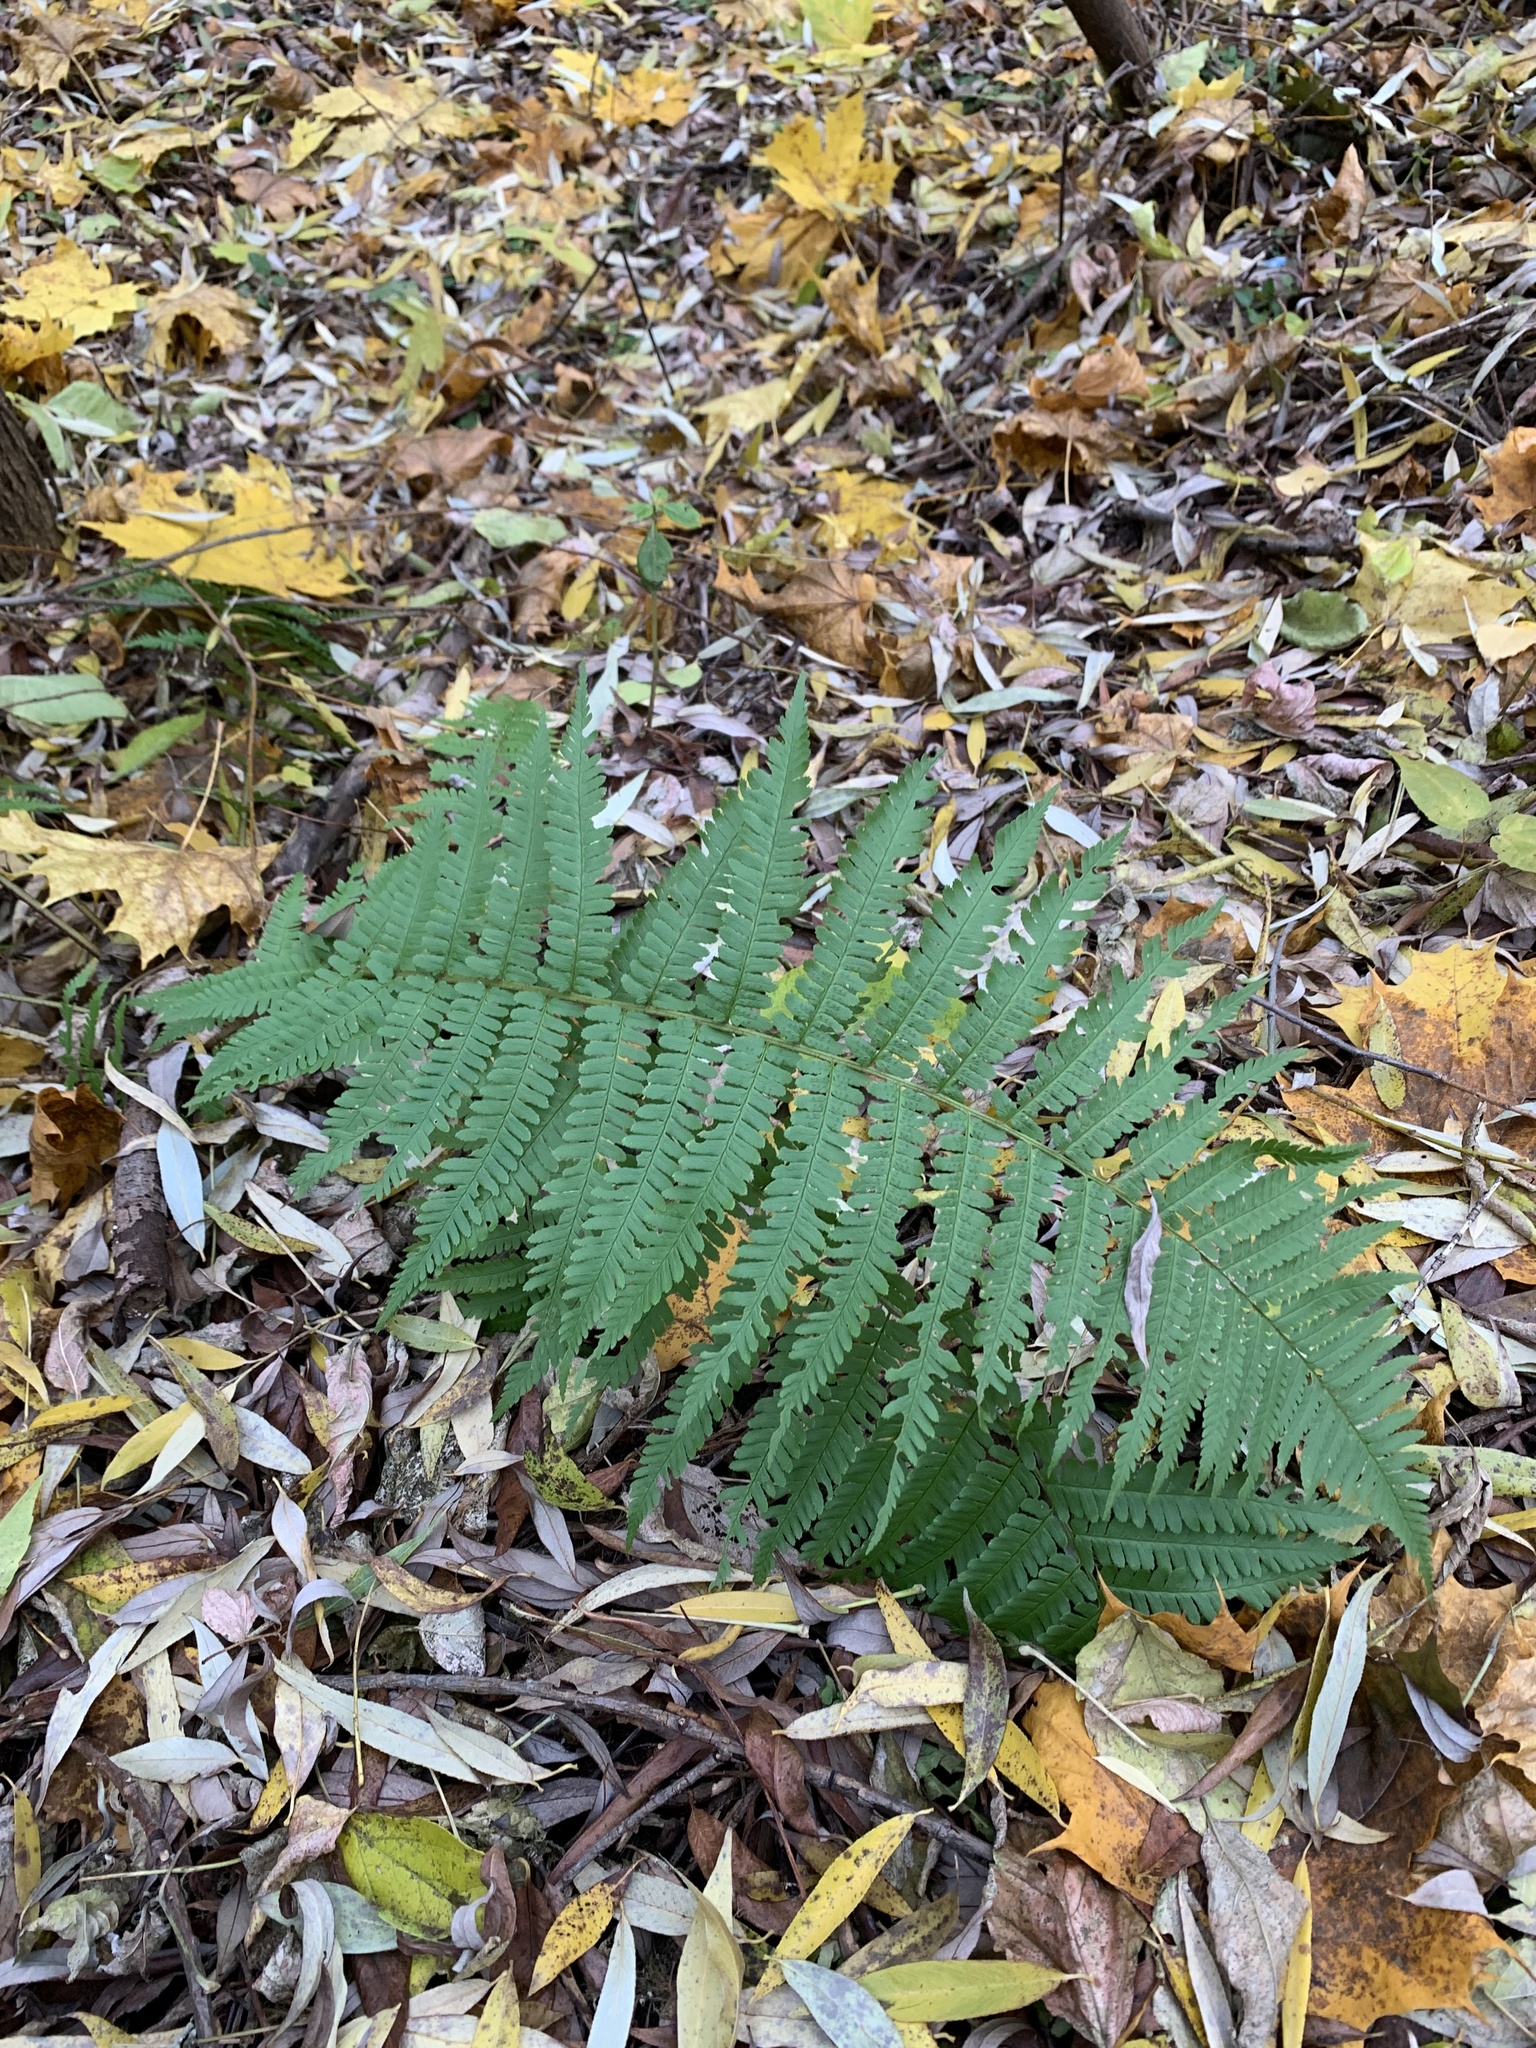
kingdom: Plantae
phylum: Tracheophyta
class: Polypodiopsida
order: Polypodiales
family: Dryopteridaceae
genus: Dryopteris
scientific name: Dryopteris filix-mas
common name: Male fern
